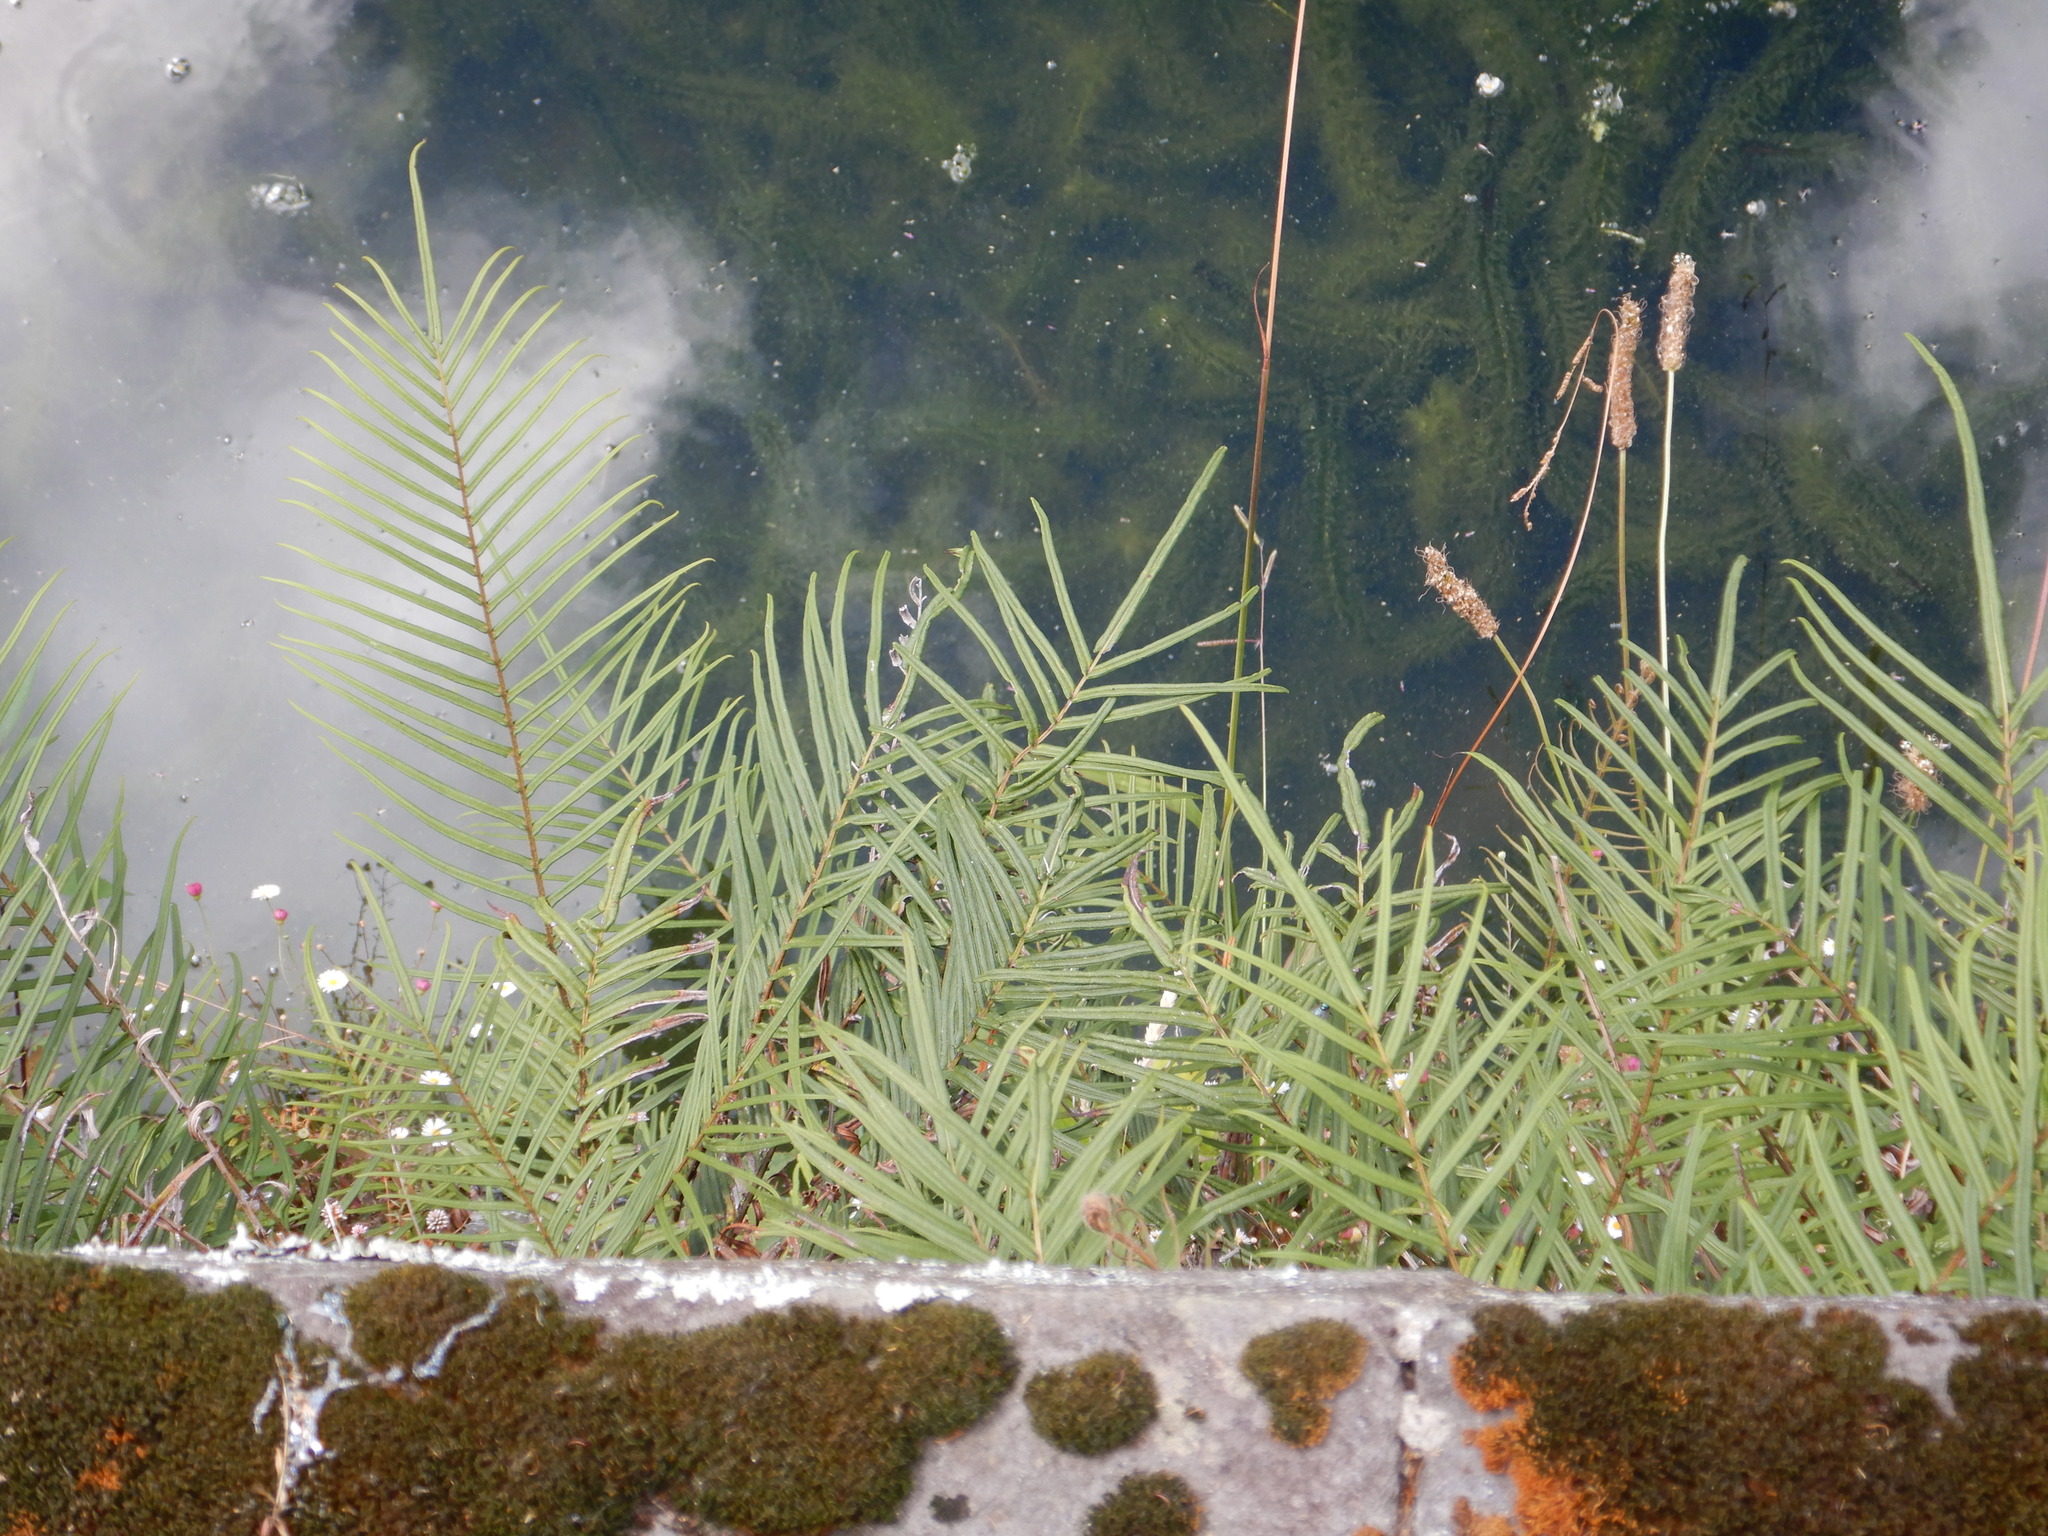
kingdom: Plantae
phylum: Tracheophyta
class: Polypodiopsida
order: Polypodiales
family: Pteridaceae
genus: Pteris
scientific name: Pteris vittata
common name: Ladder brake
